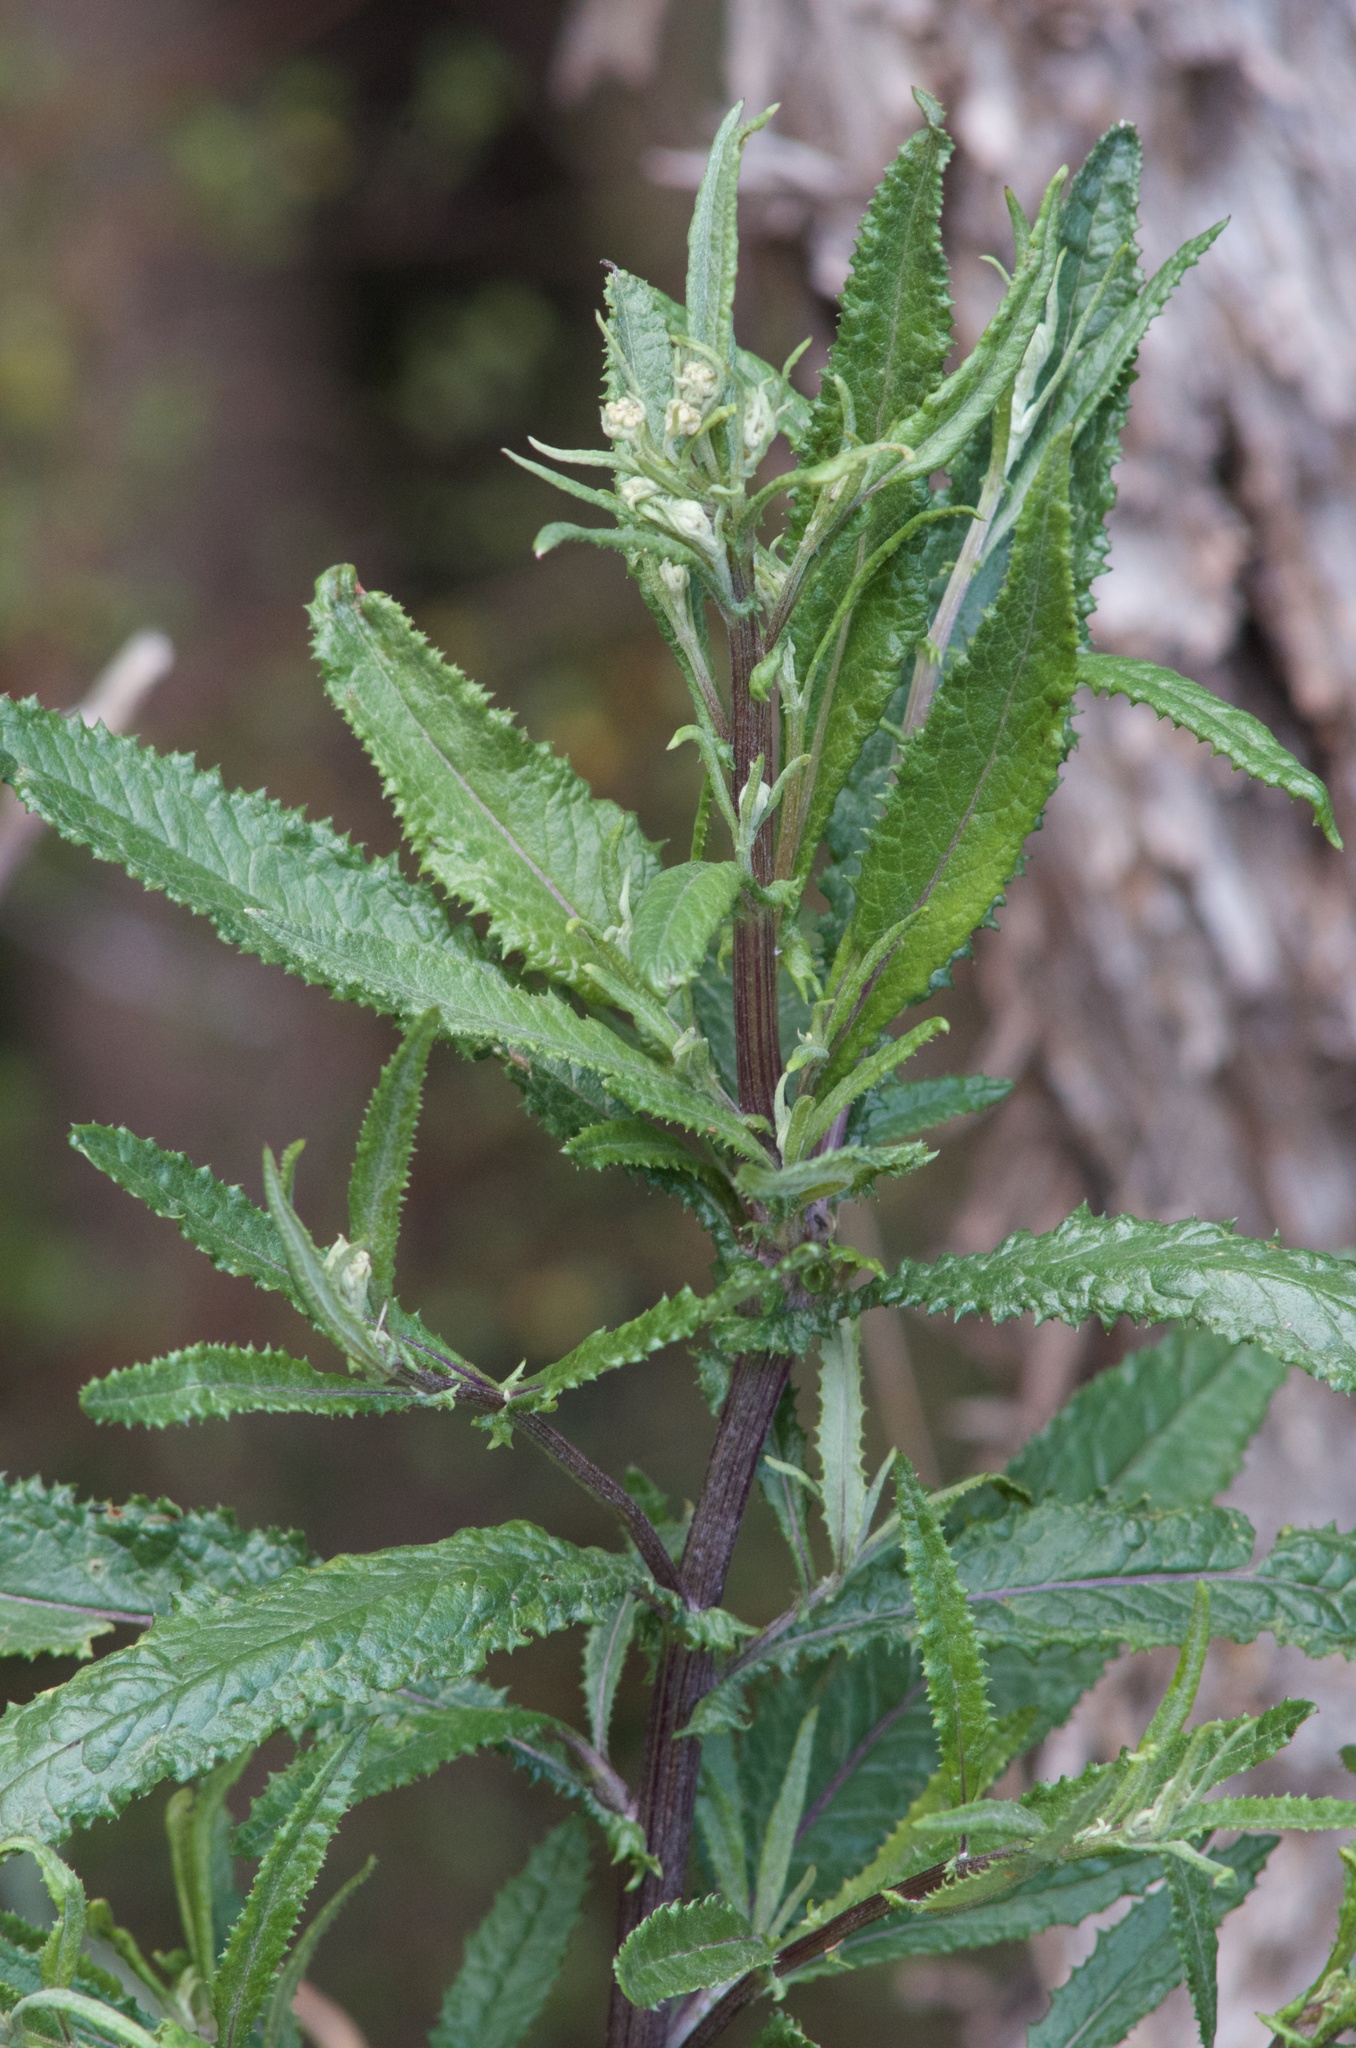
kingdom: Plantae
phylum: Tracheophyta
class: Magnoliopsida
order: Asterales
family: Asteraceae
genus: Senecio
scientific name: Senecio minimus
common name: Toothed fireweed
